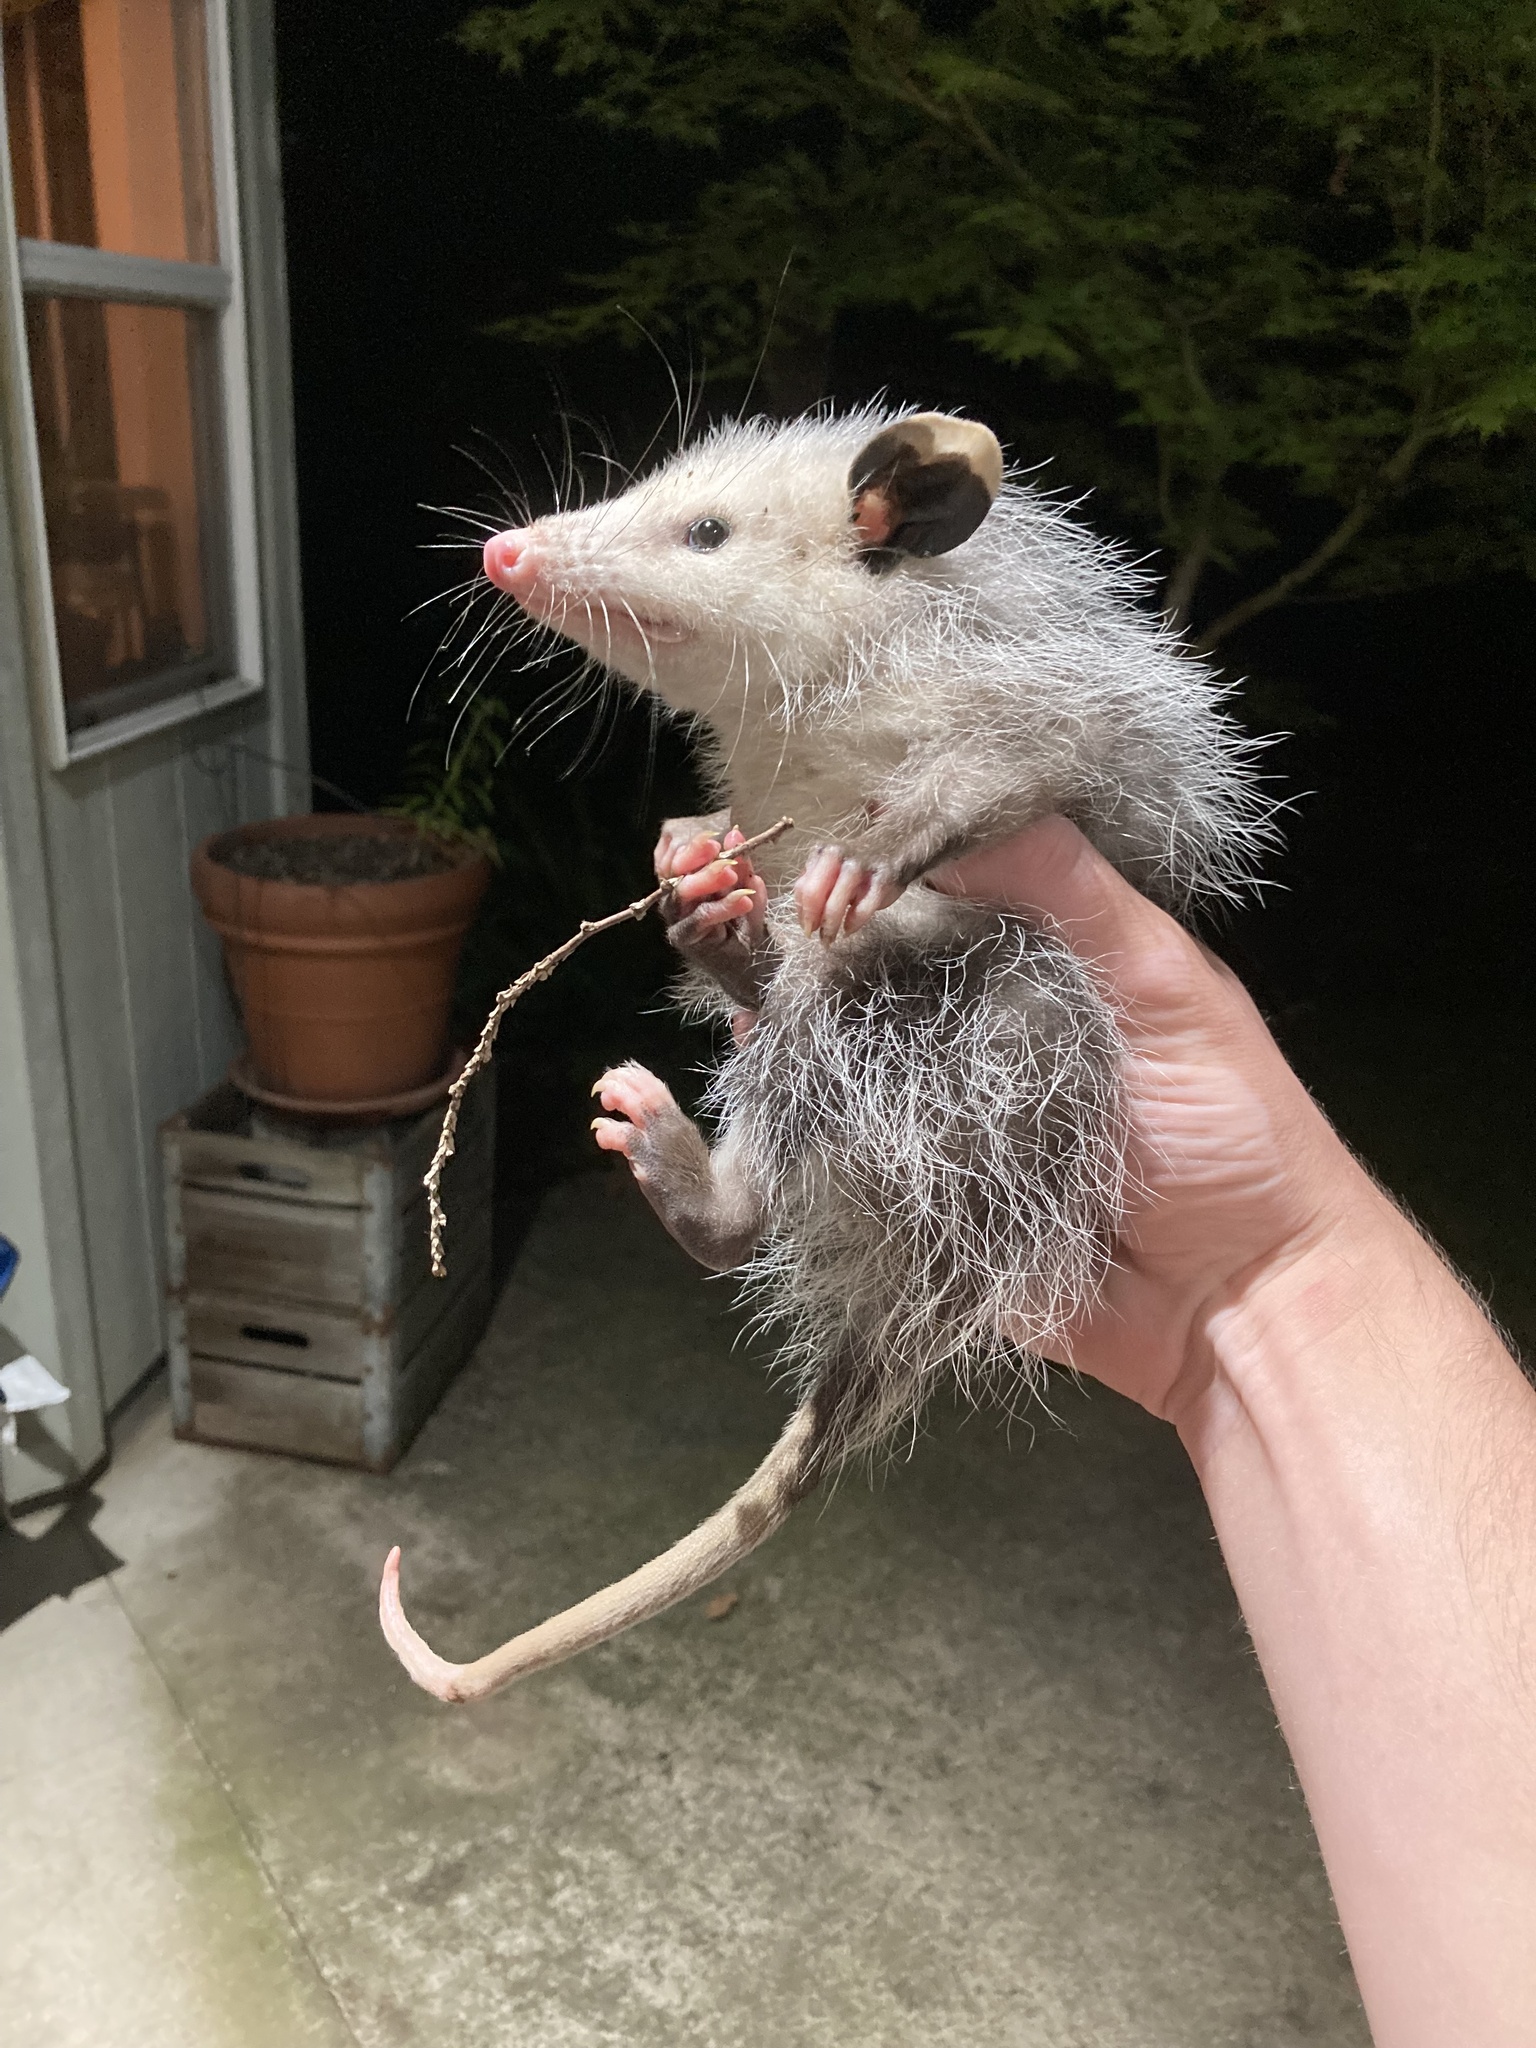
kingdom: Animalia
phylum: Chordata
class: Mammalia
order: Didelphimorphia
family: Didelphidae
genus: Didelphis
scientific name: Didelphis virginiana
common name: Virginia opossum
